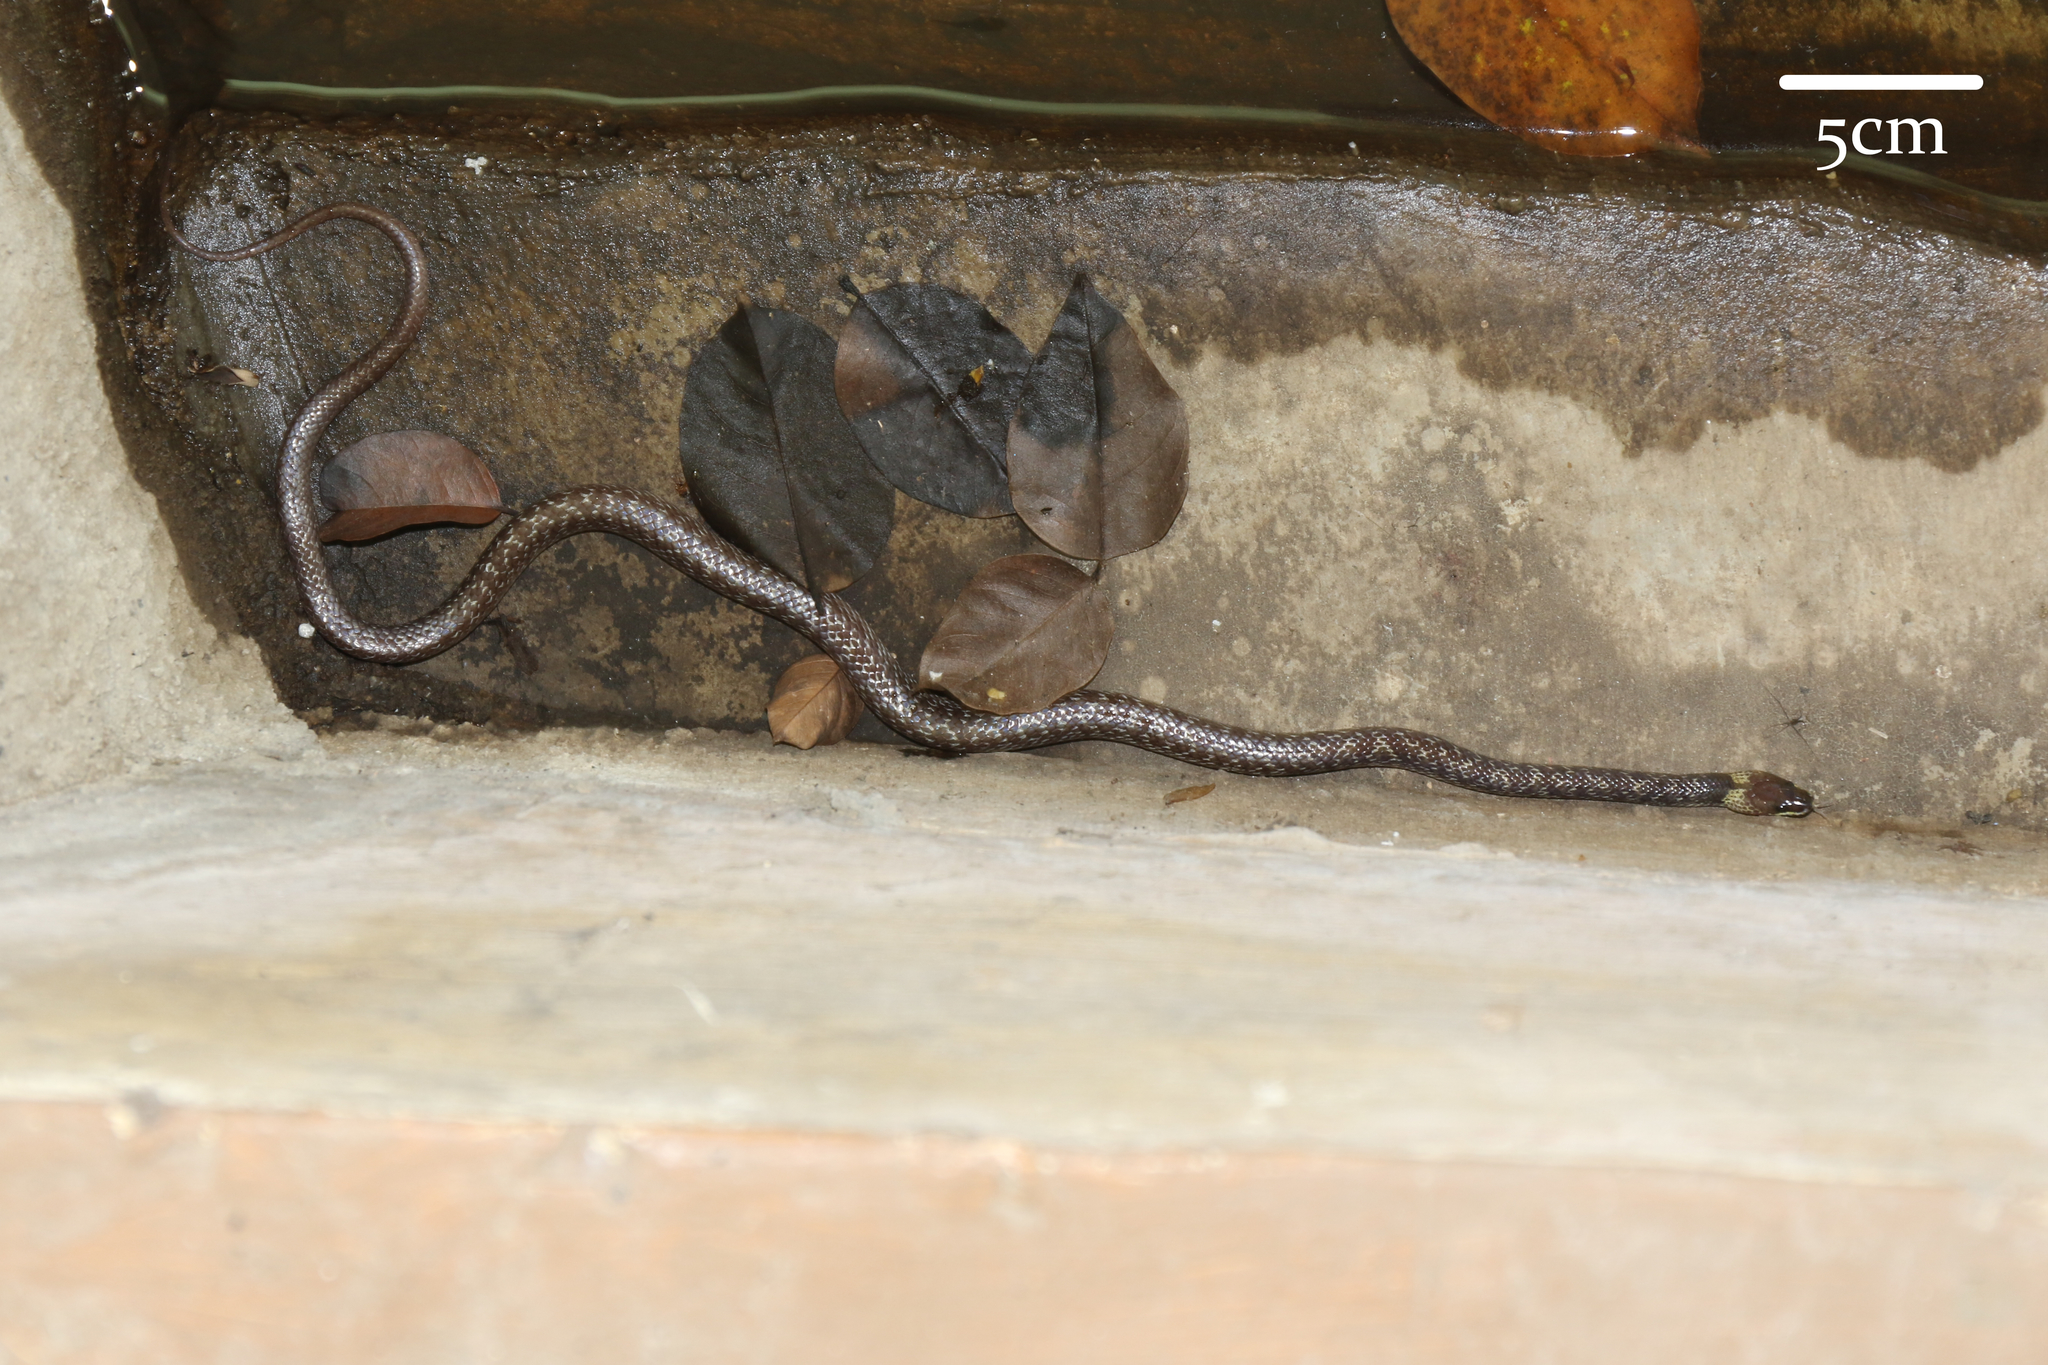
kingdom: Animalia
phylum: Chordata
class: Squamata
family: Colubridae
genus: Lycodon
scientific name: Lycodon capucinus
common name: Common wold snake/house snake
